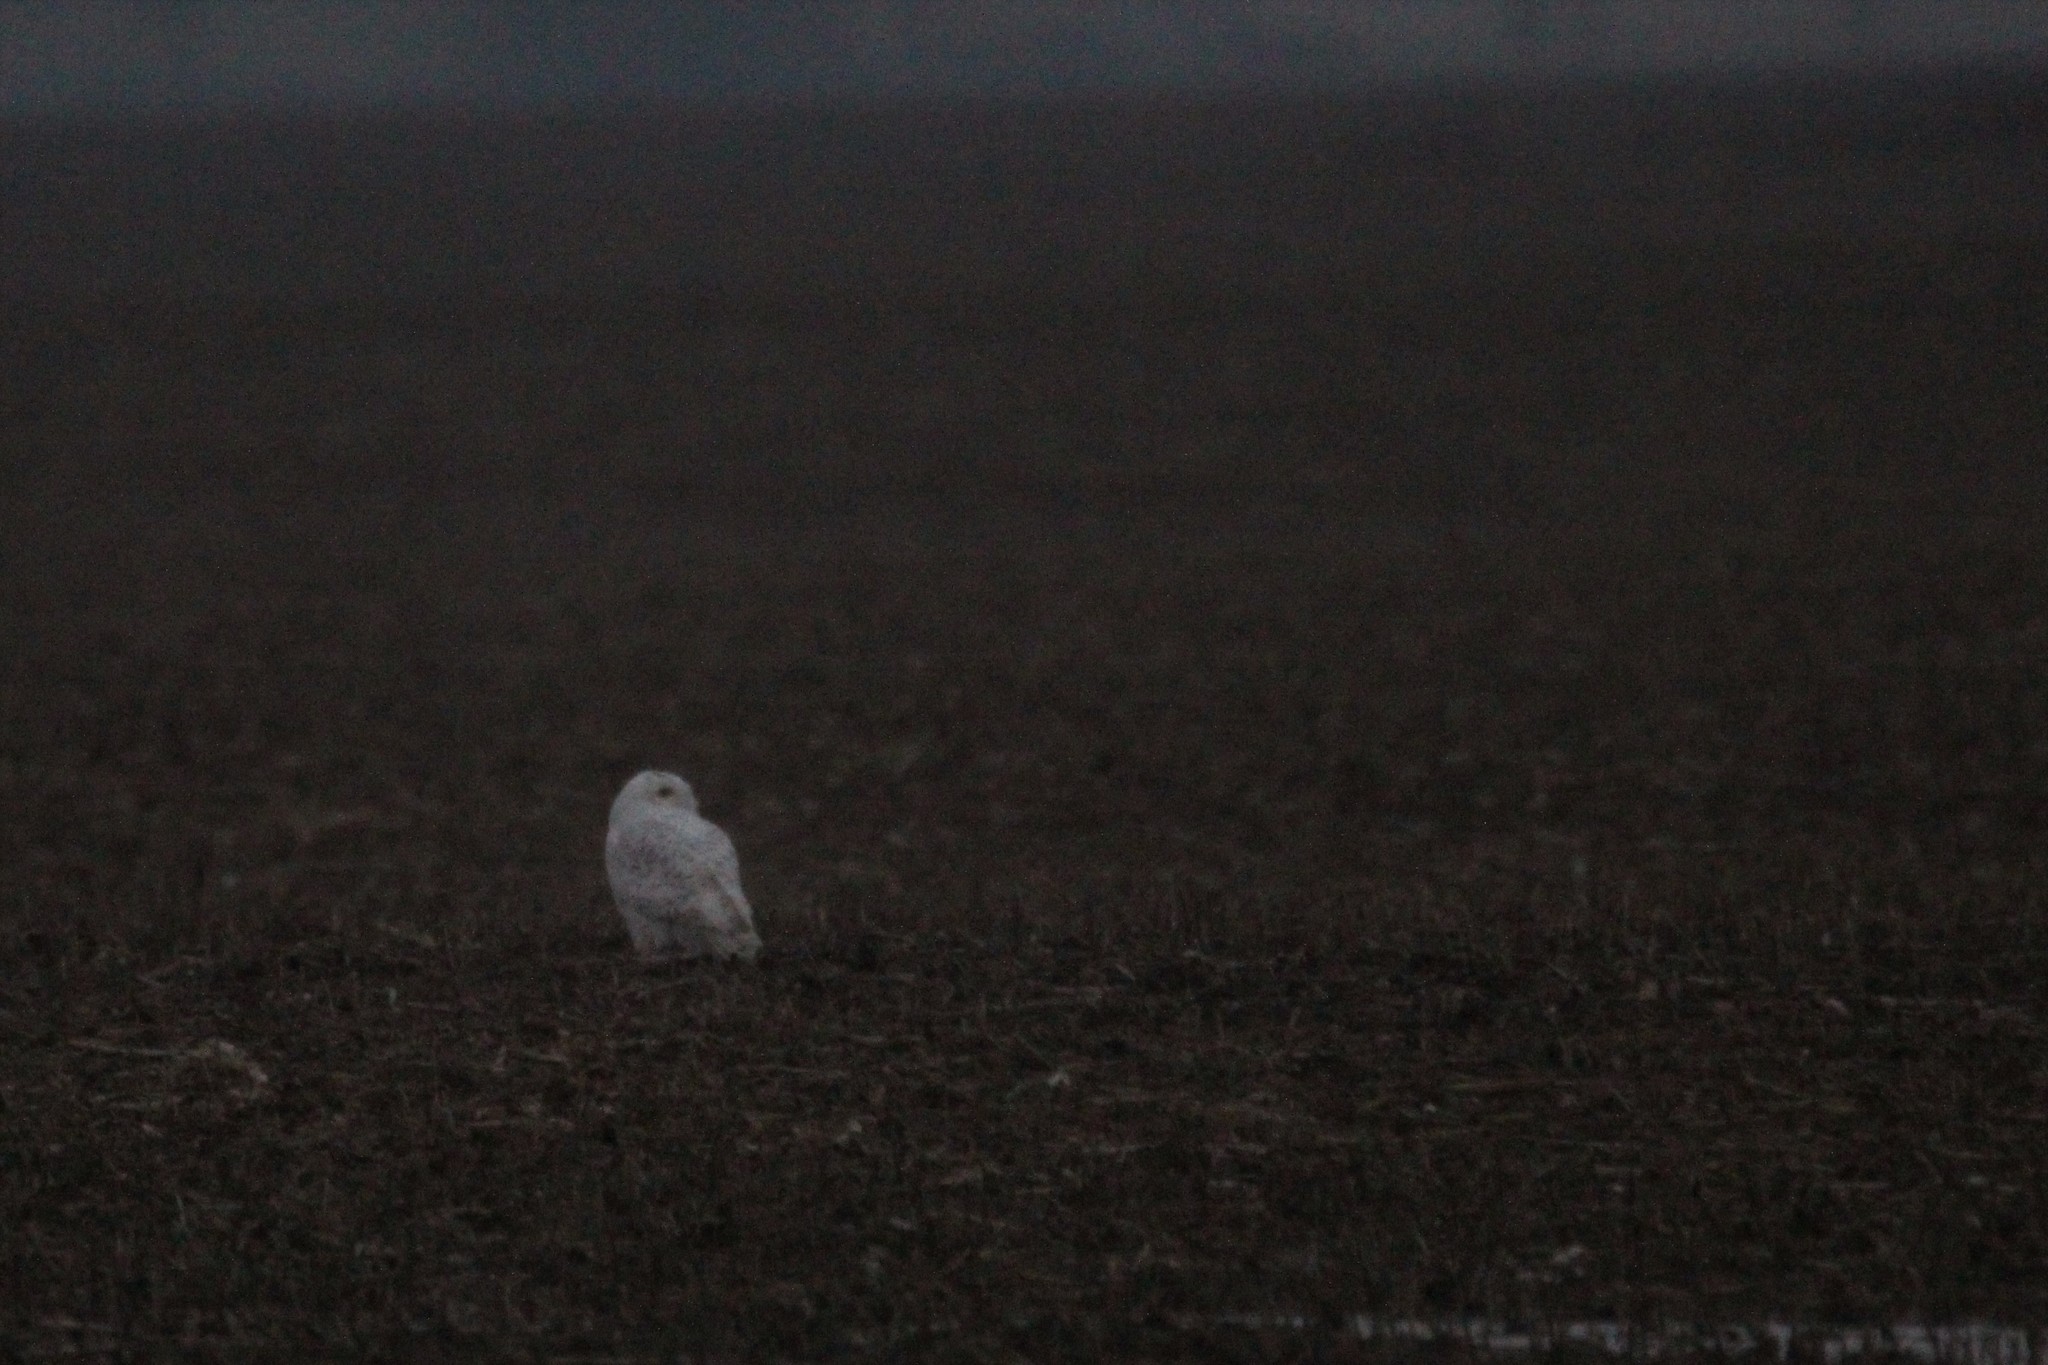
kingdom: Animalia
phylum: Chordata
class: Aves
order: Strigiformes
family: Strigidae
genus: Bubo
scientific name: Bubo scandiacus
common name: Snowy owl
